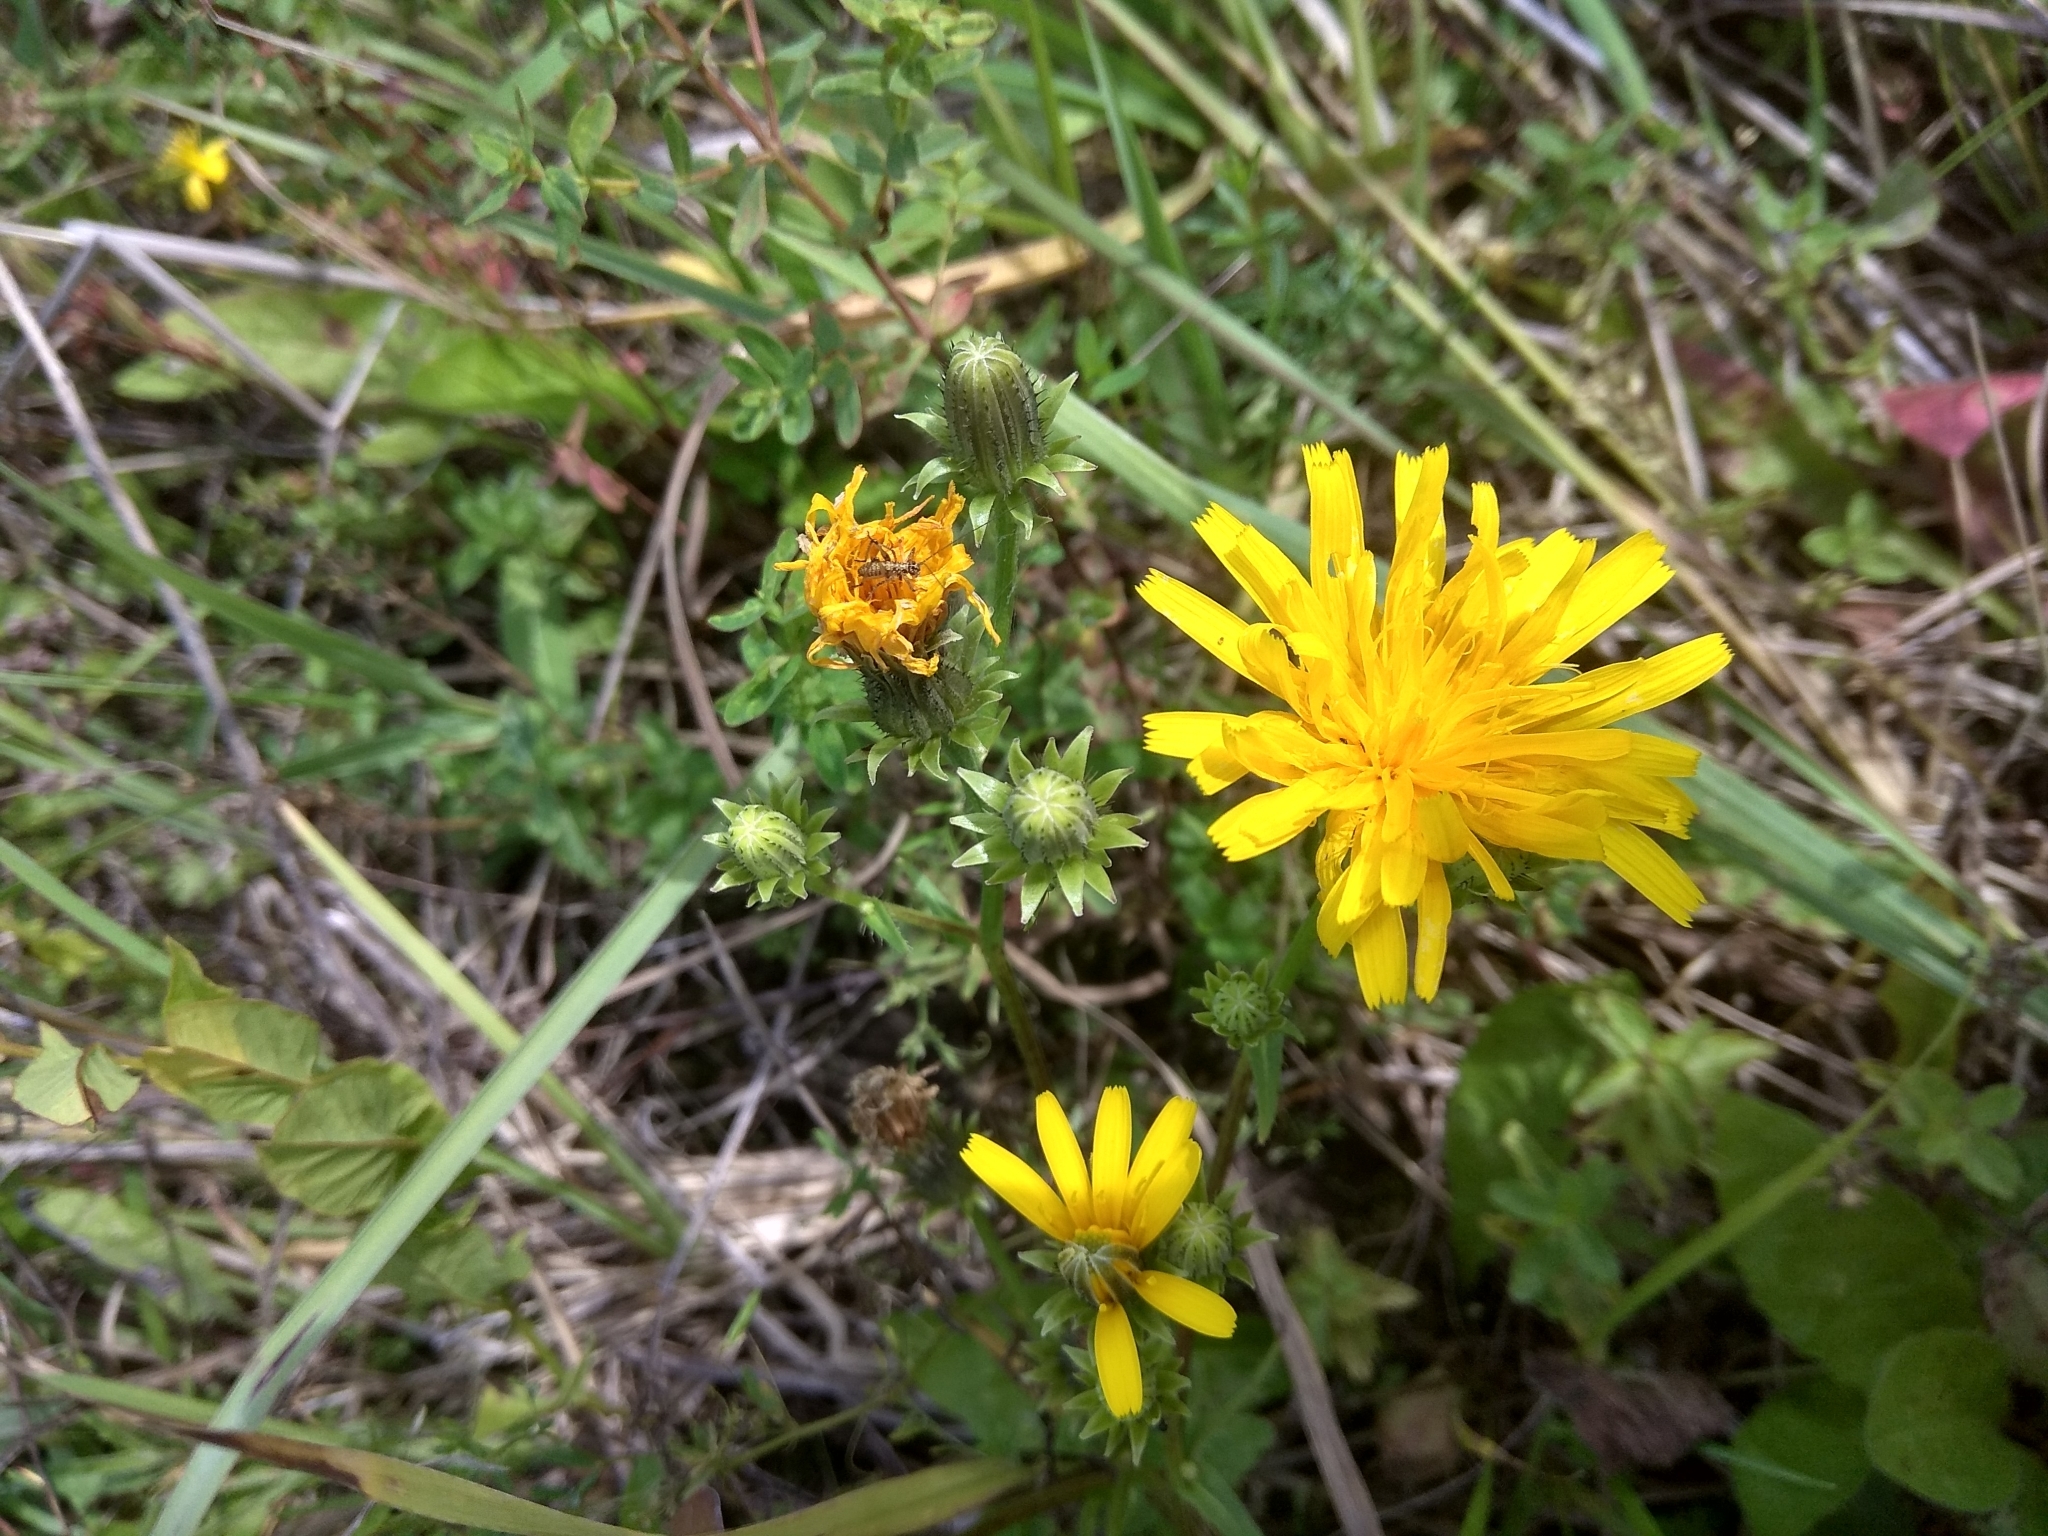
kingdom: Plantae
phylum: Tracheophyta
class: Magnoliopsida
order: Asterales
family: Asteraceae
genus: Picris
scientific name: Picris hieracioides
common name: Hawkweed oxtongue
